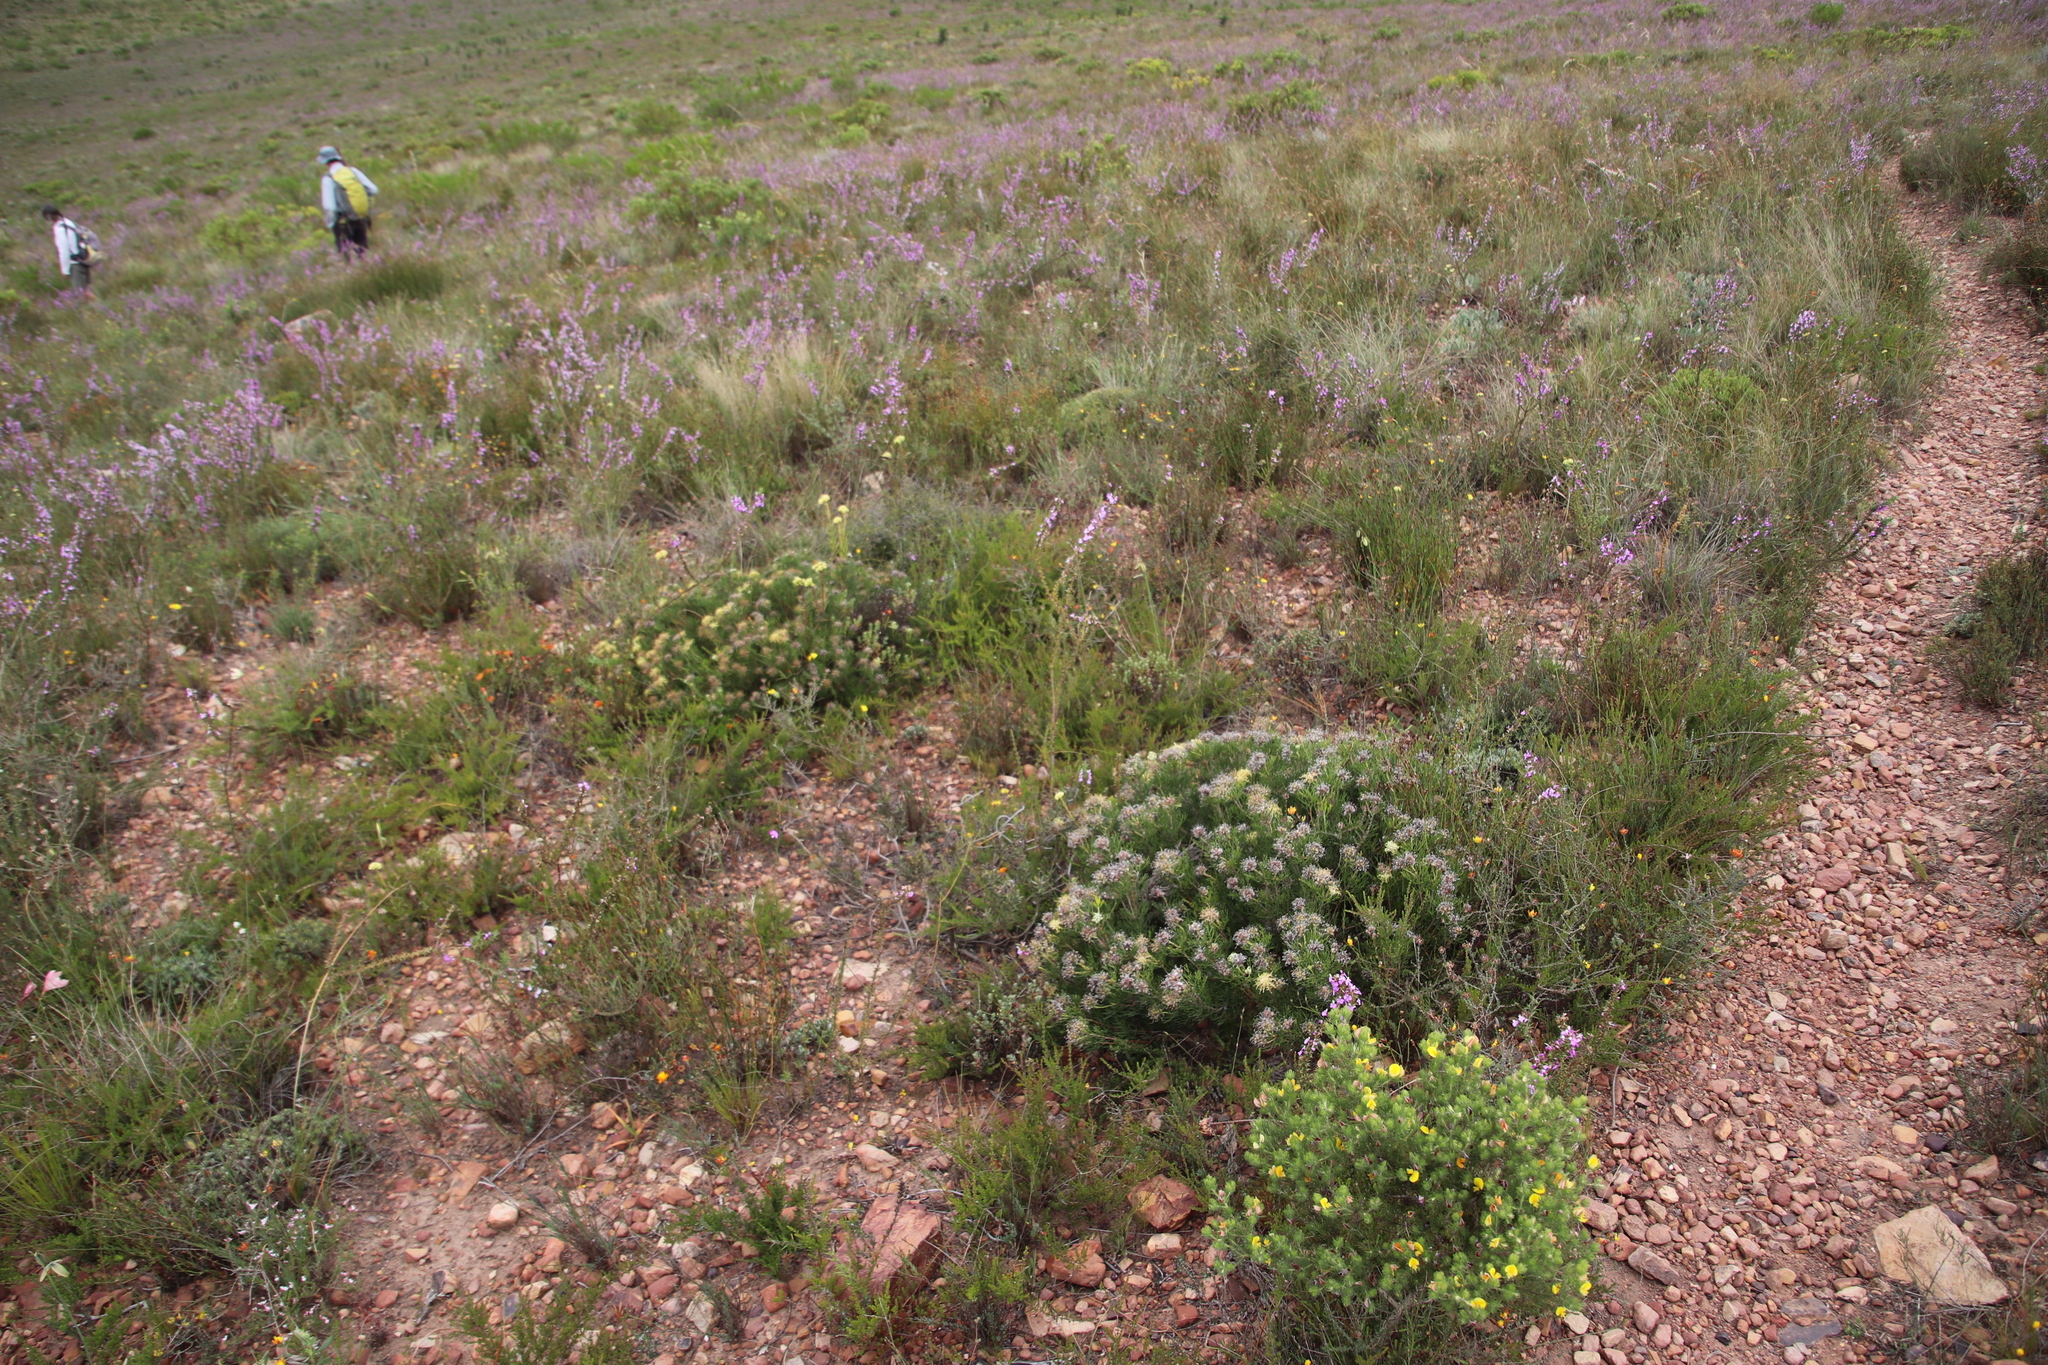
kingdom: Plantae
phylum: Tracheophyta
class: Magnoliopsida
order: Proteales
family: Proteaceae
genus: Serruria
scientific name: Serruria
